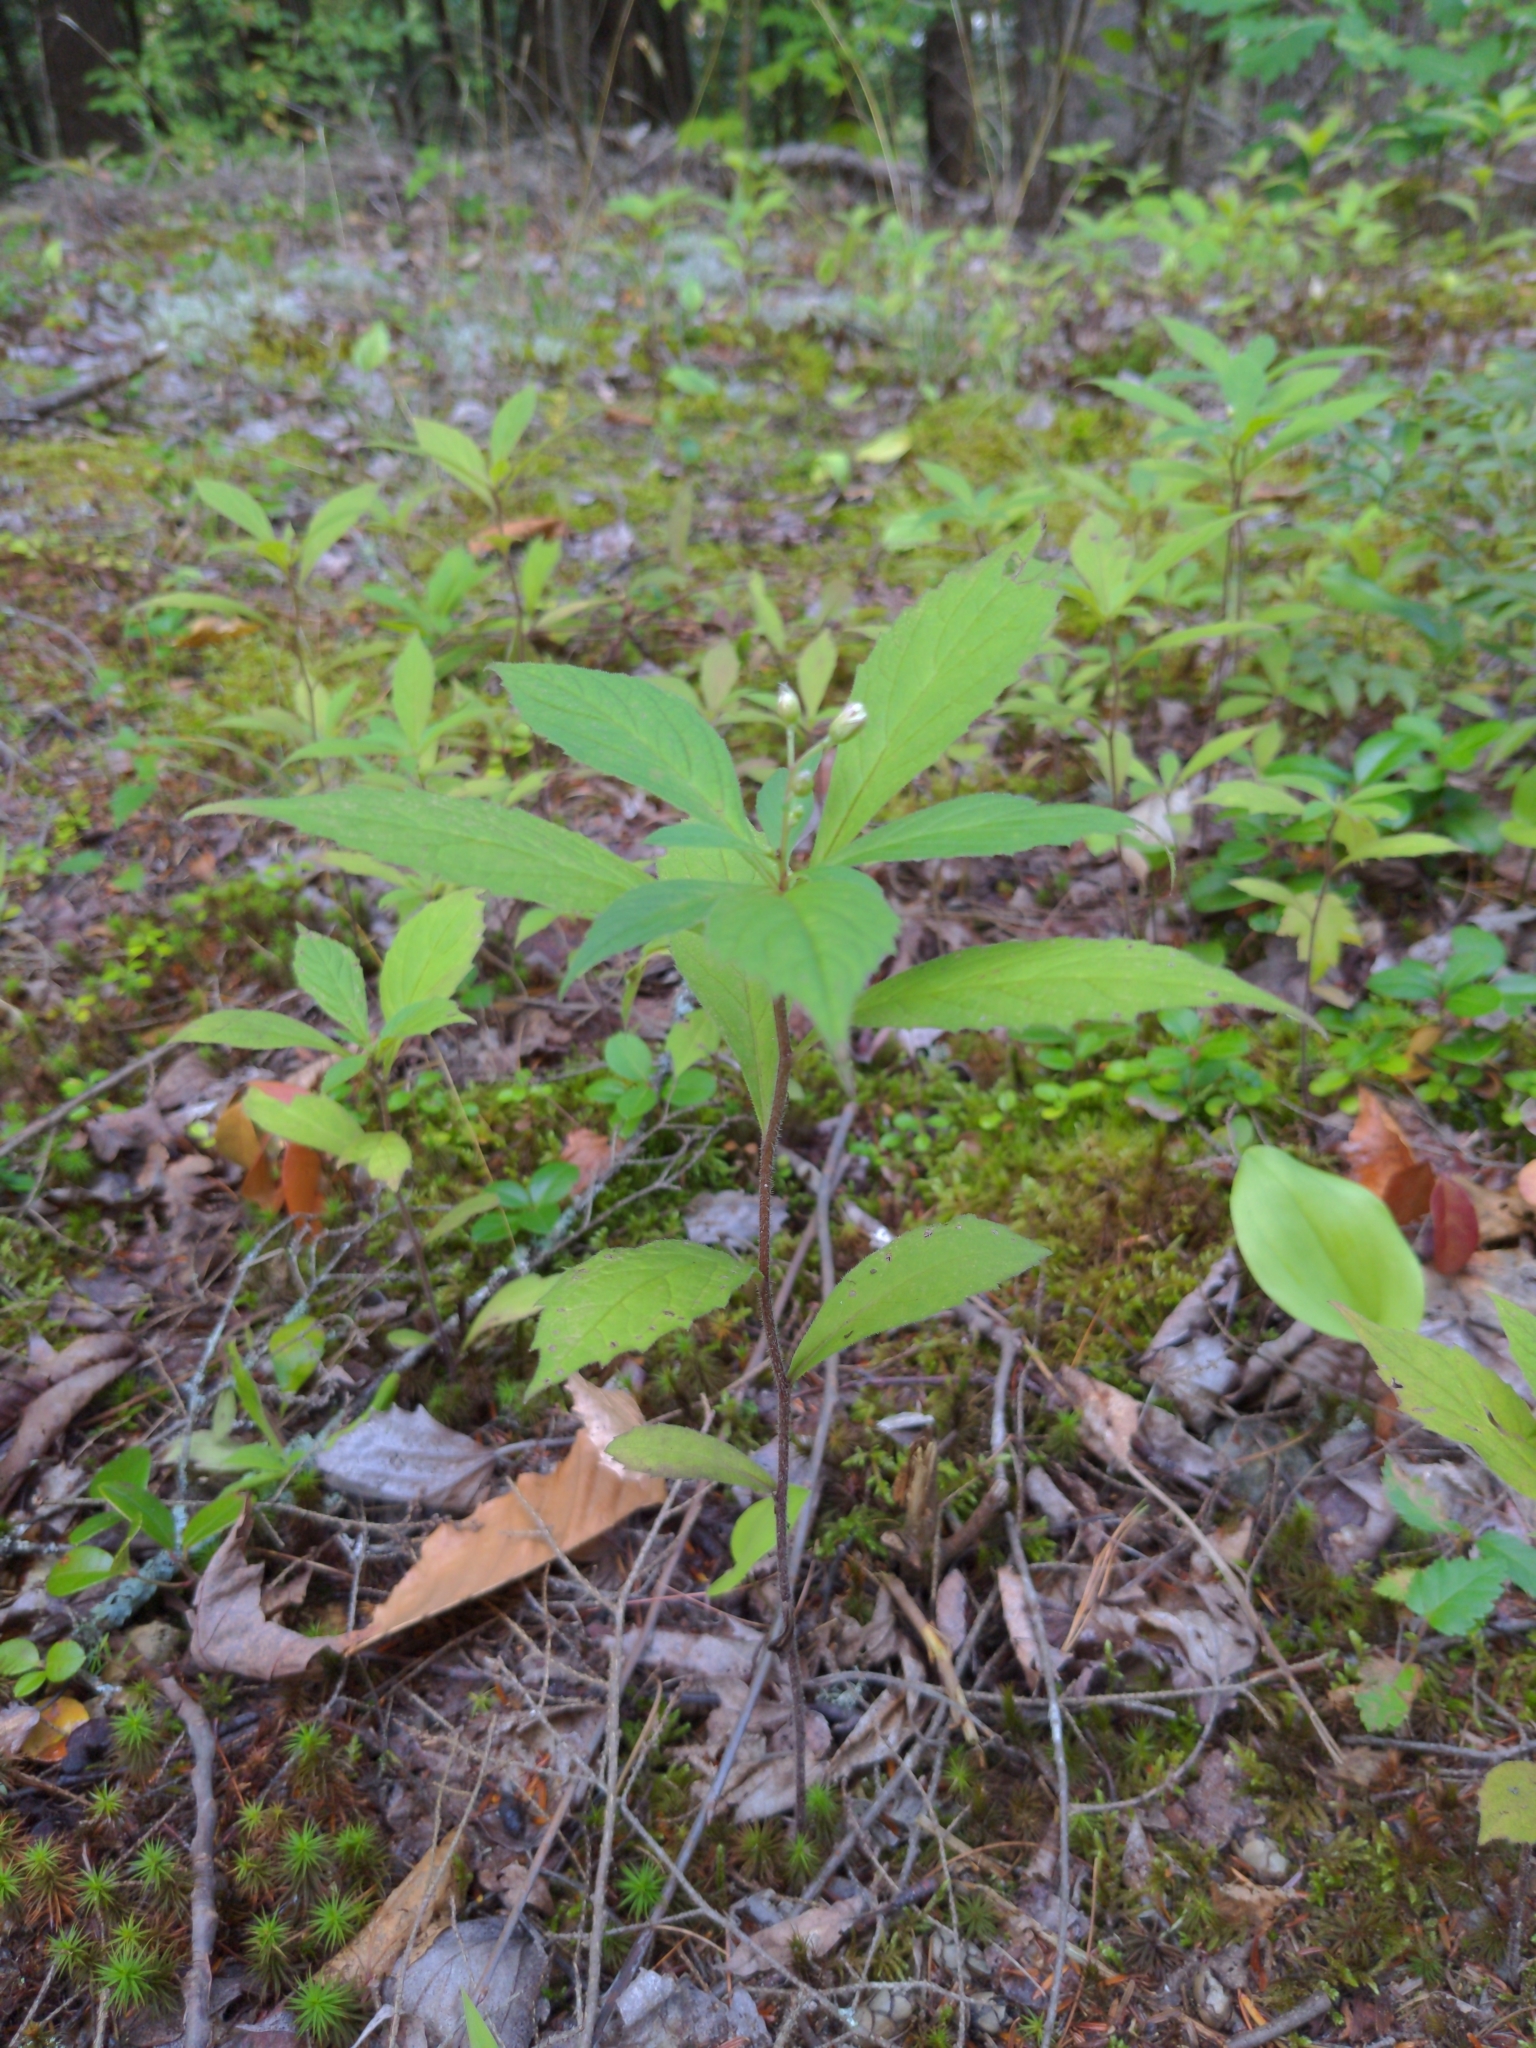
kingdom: Plantae
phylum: Tracheophyta
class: Magnoliopsida
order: Asterales
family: Asteraceae
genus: Oclemena
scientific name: Oclemena acuminata
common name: Mountain aster
